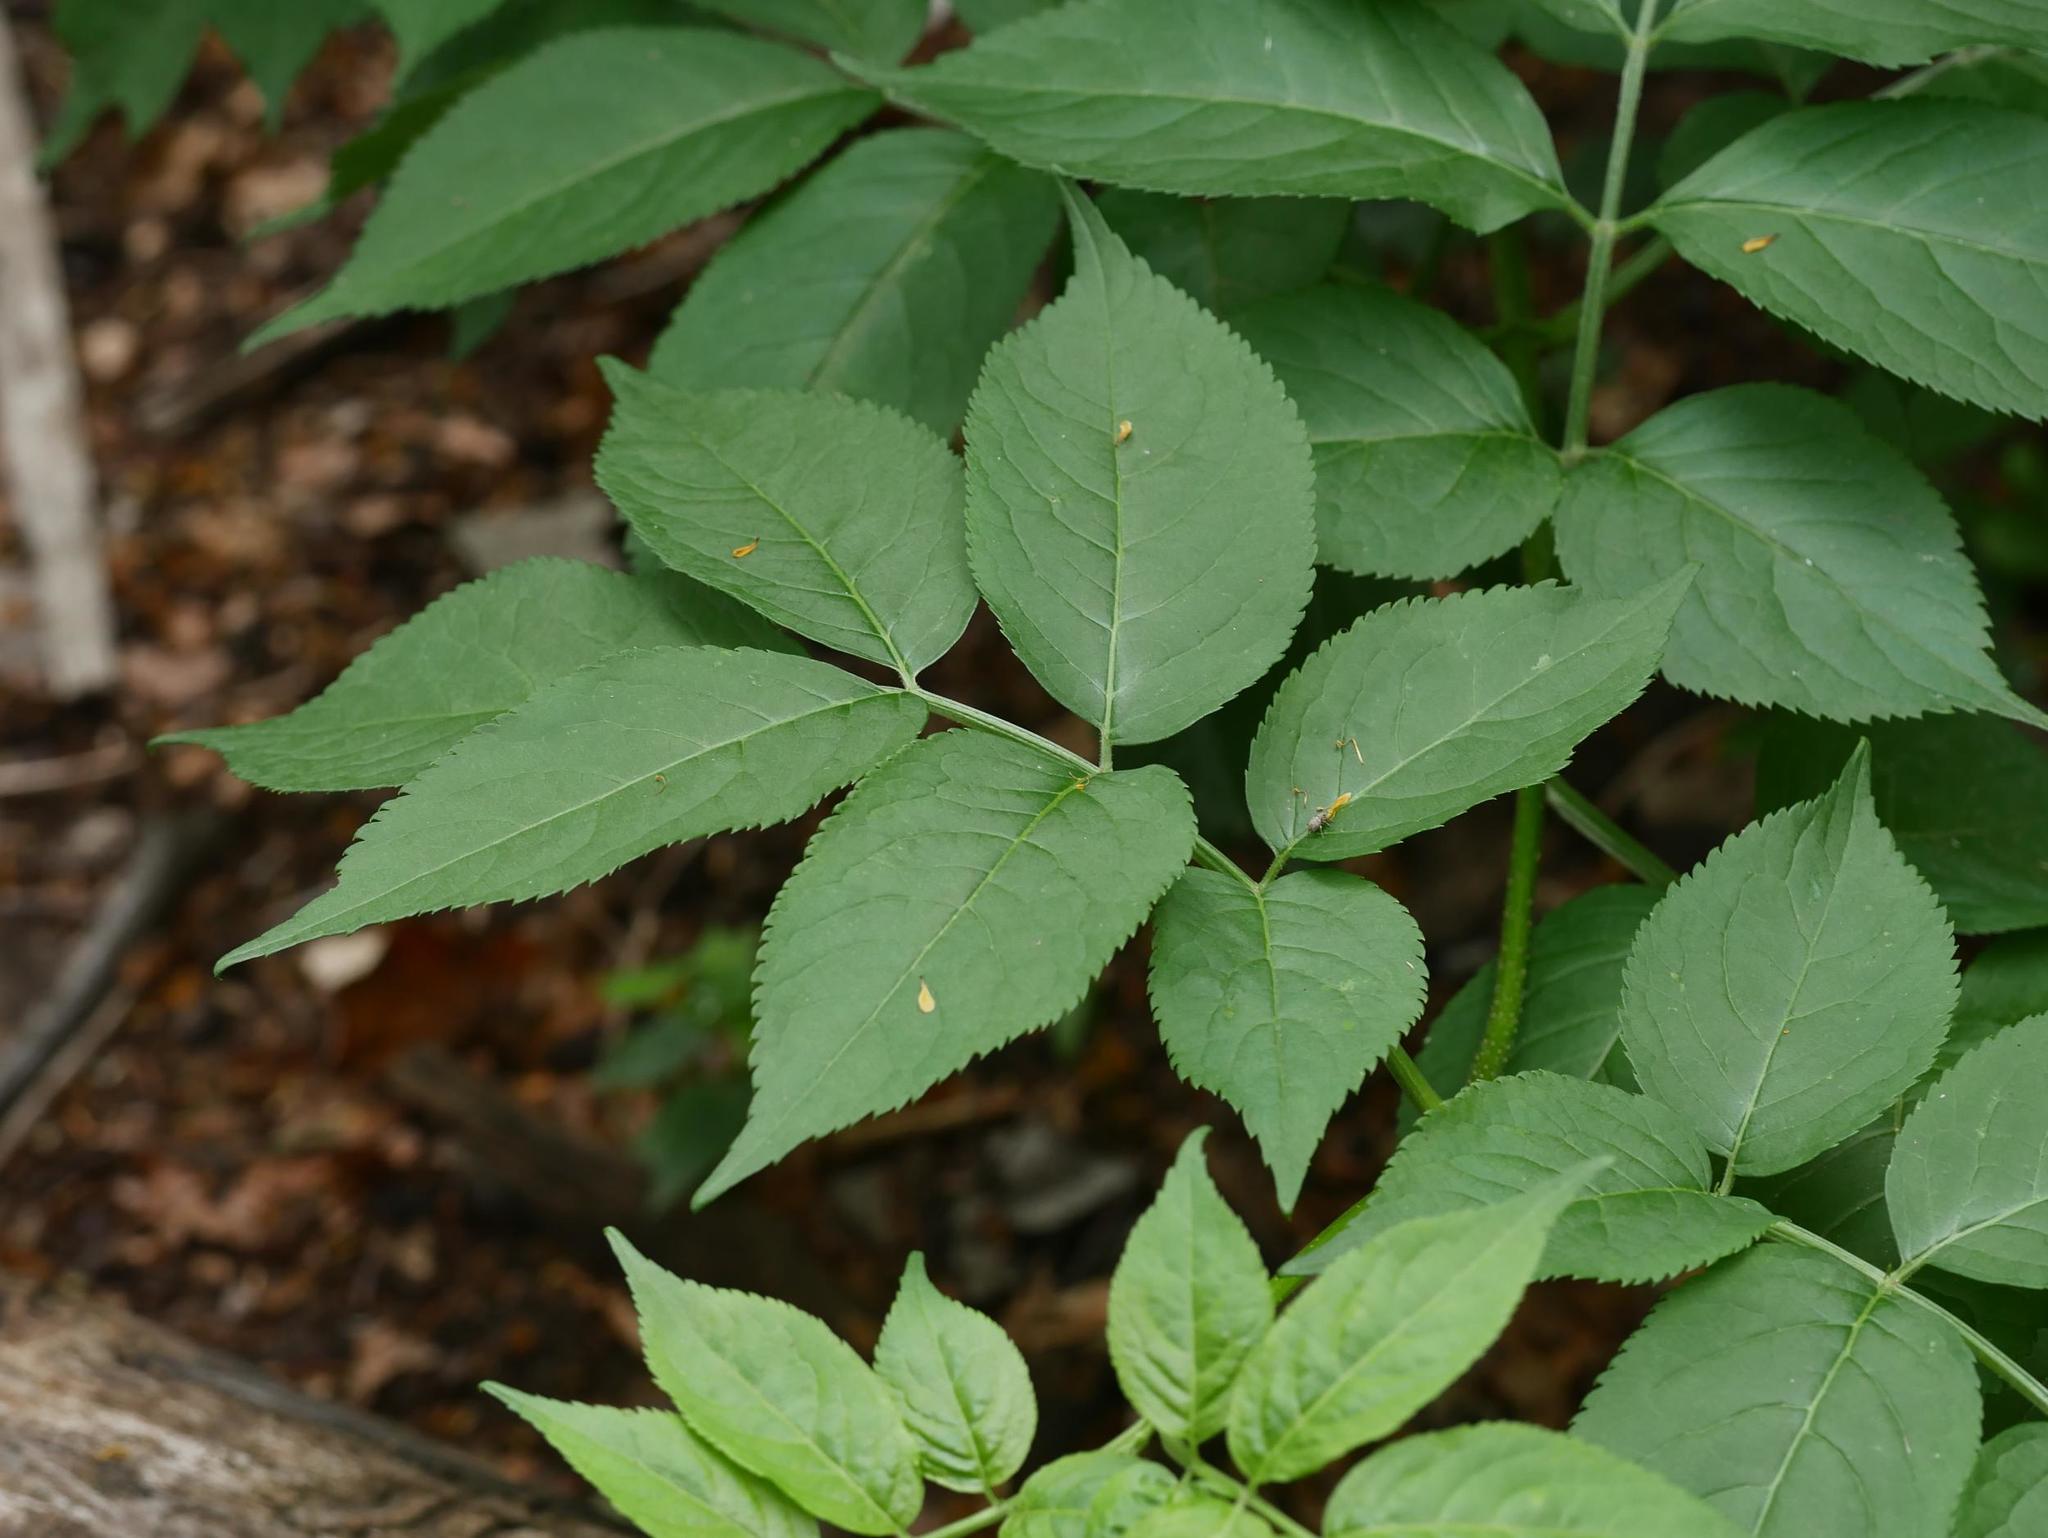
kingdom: Plantae
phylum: Tracheophyta
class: Magnoliopsida
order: Dipsacales
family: Viburnaceae
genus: Sambucus
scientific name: Sambucus nigra
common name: Elder
